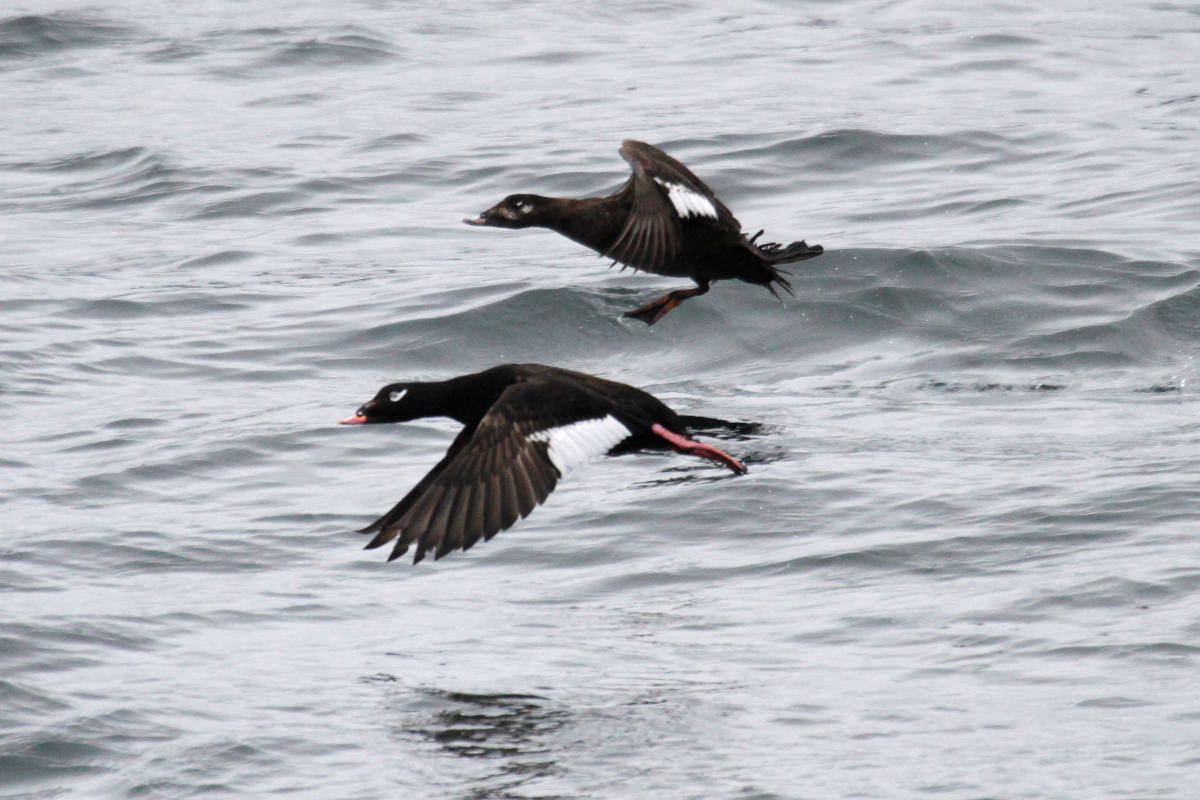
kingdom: Animalia
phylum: Chordata
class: Aves
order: Anseriformes
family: Anatidae
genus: Melanitta
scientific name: Melanitta deglandi
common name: White-winged scoter
